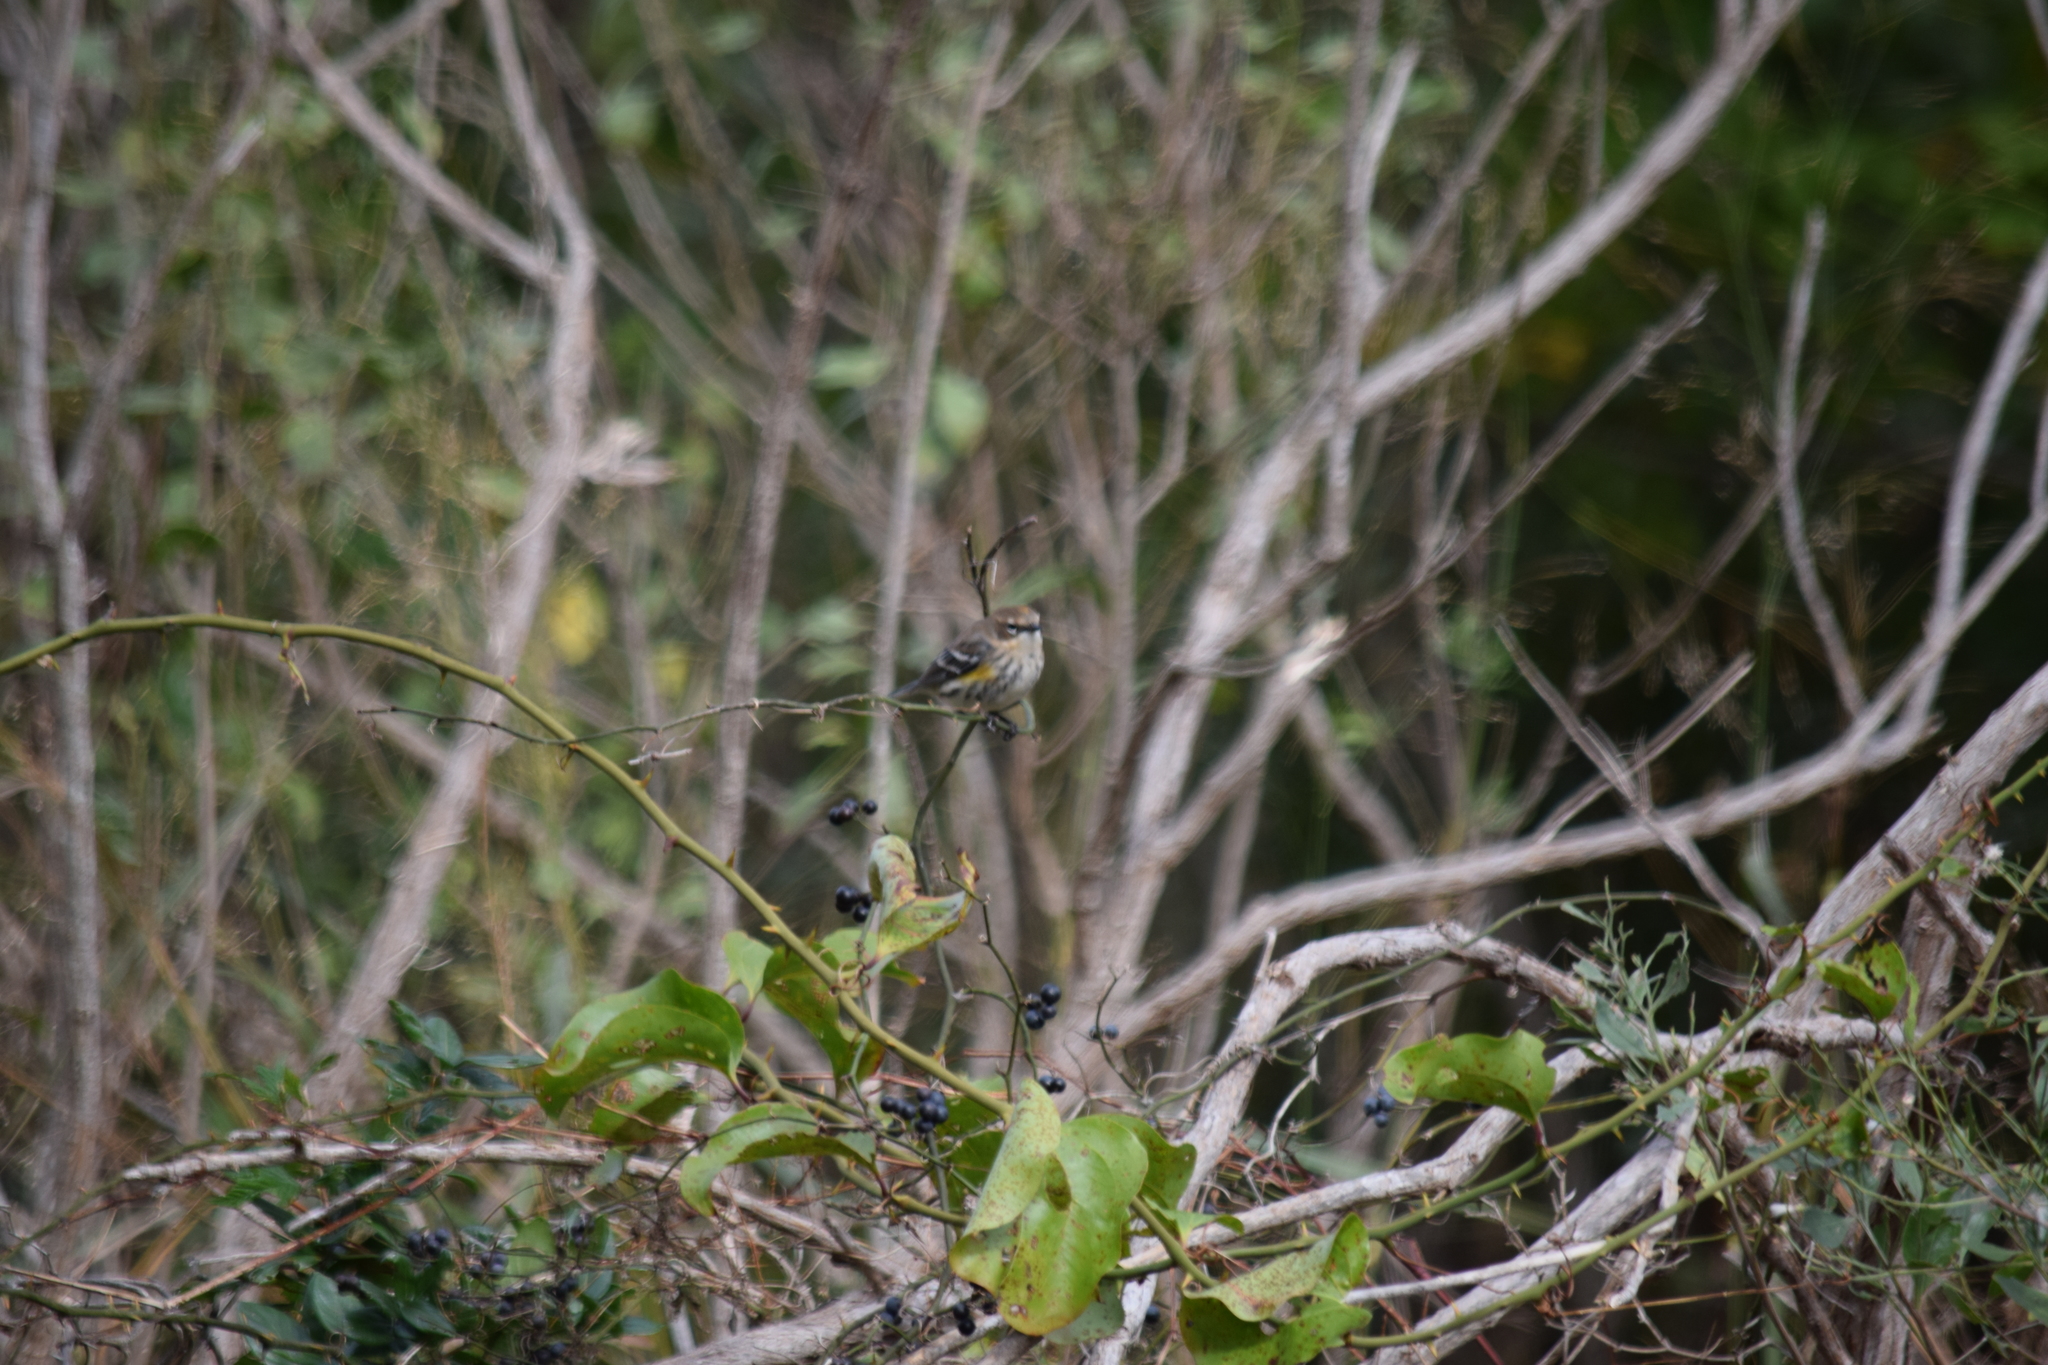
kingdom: Animalia
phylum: Chordata
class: Aves
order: Passeriformes
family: Parulidae
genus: Setophaga
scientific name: Setophaga coronata
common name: Myrtle warbler
